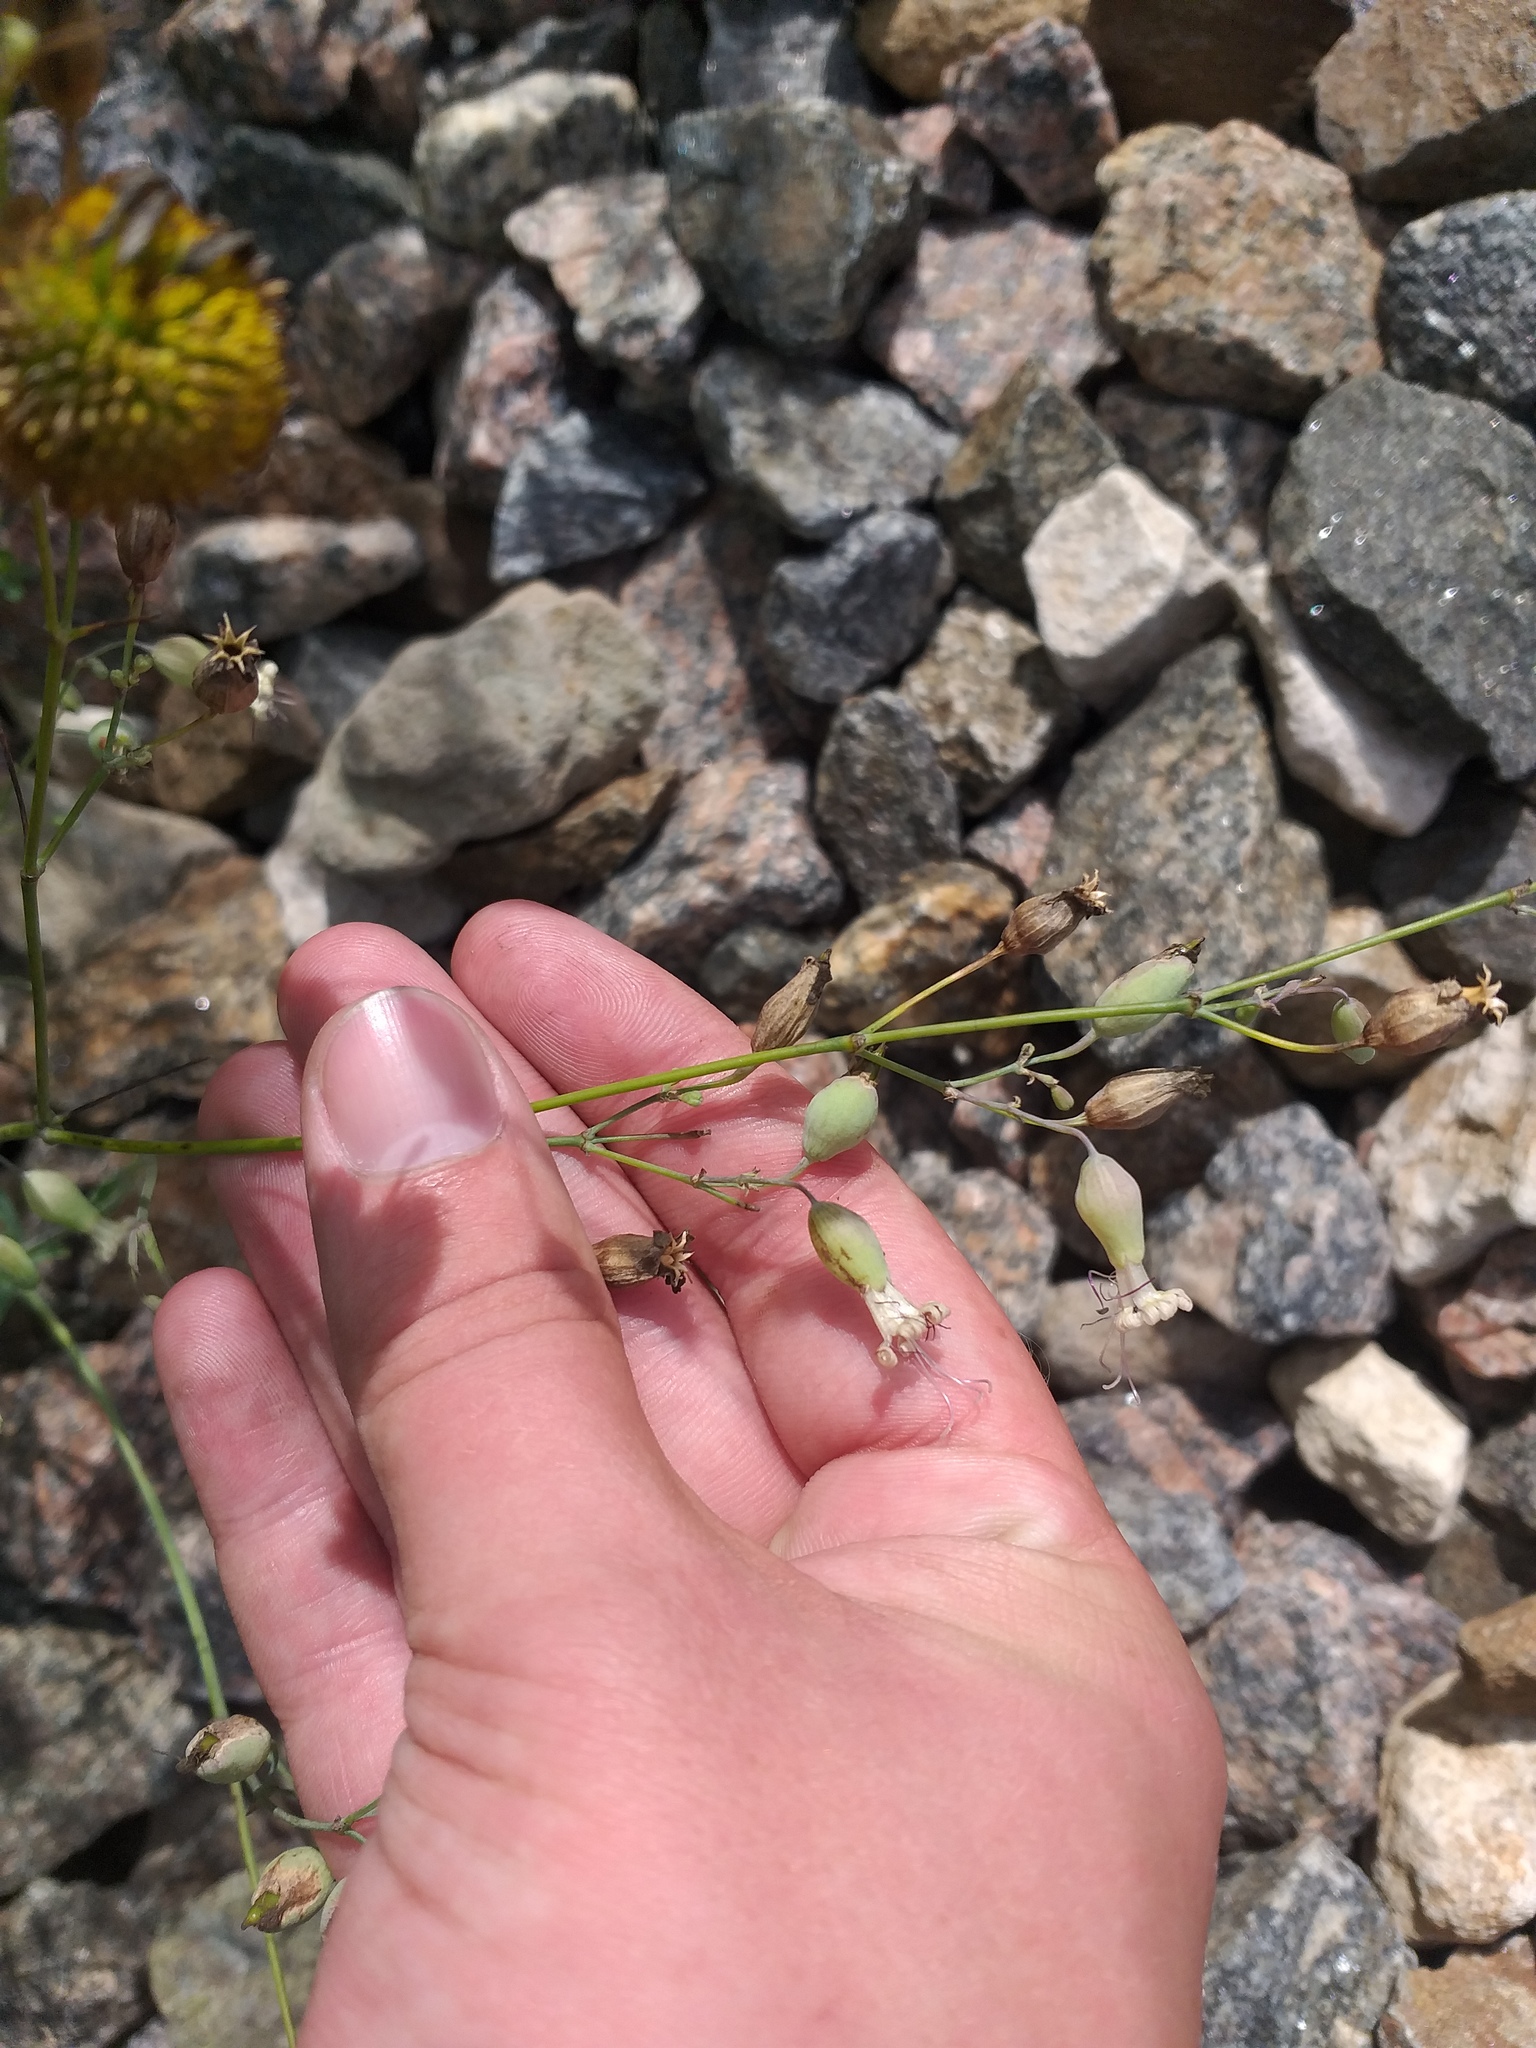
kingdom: Plantae
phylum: Tracheophyta
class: Magnoliopsida
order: Caryophyllales
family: Caryophyllaceae
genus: Silene
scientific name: Silene csereii
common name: Balkan catchfly
